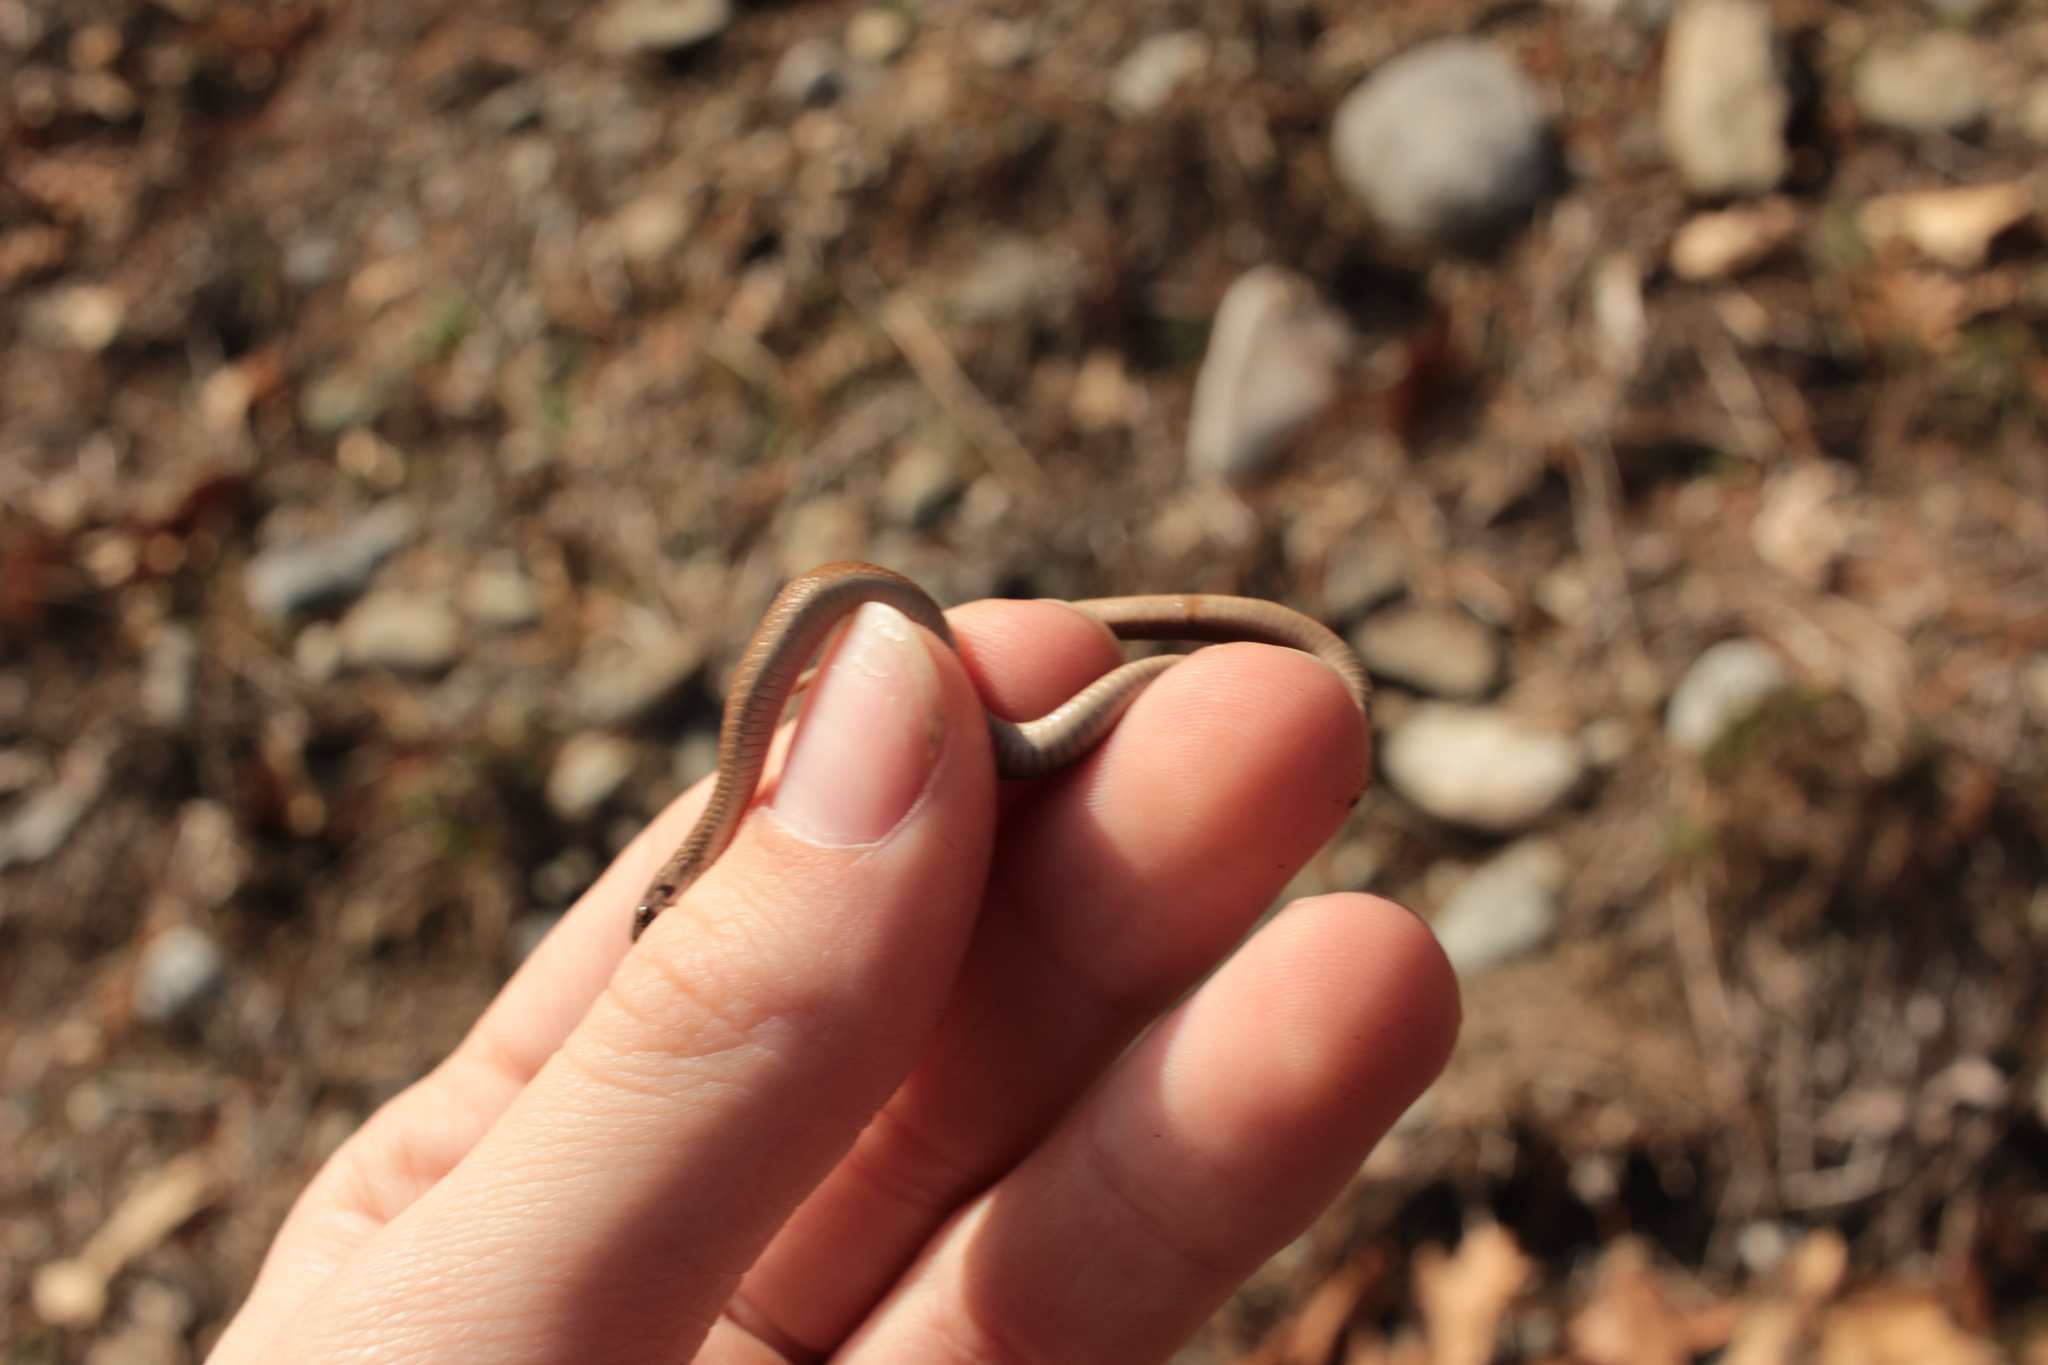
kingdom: Animalia
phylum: Chordata
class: Squamata
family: Colubridae
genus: Storeria
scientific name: Storeria dekayi
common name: (dekay’s) brown snake
